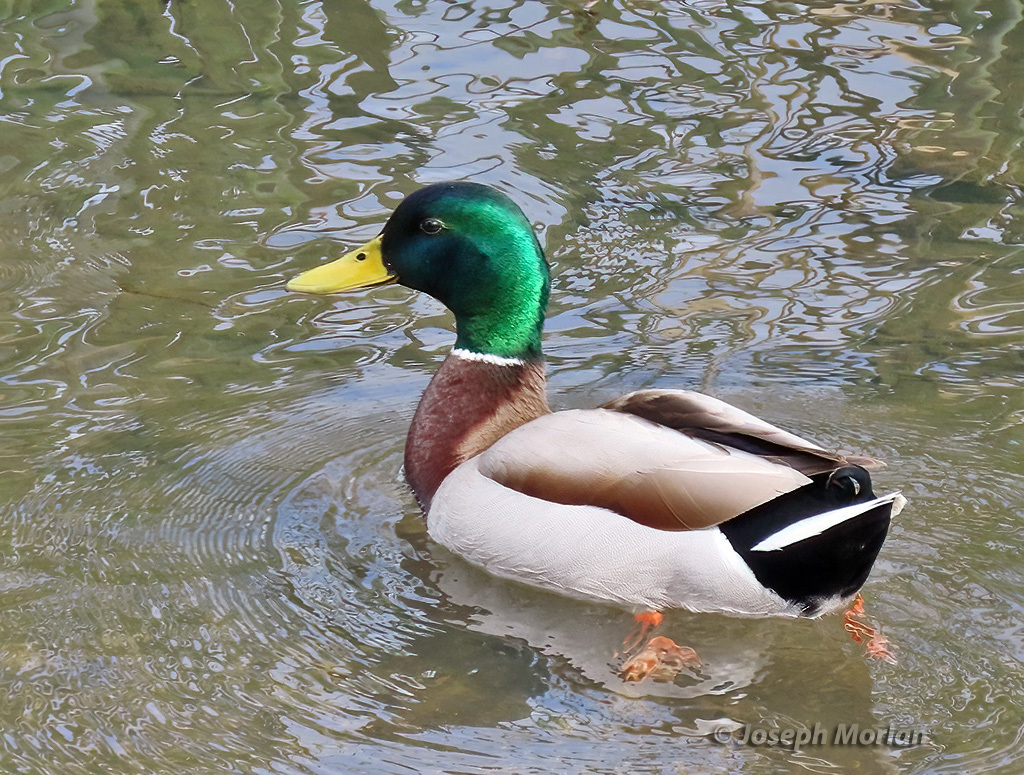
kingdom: Animalia
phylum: Chordata
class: Aves
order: Anseriformes
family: Anatidae
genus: Anas
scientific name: Anas platyrhynchos
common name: Mallard
